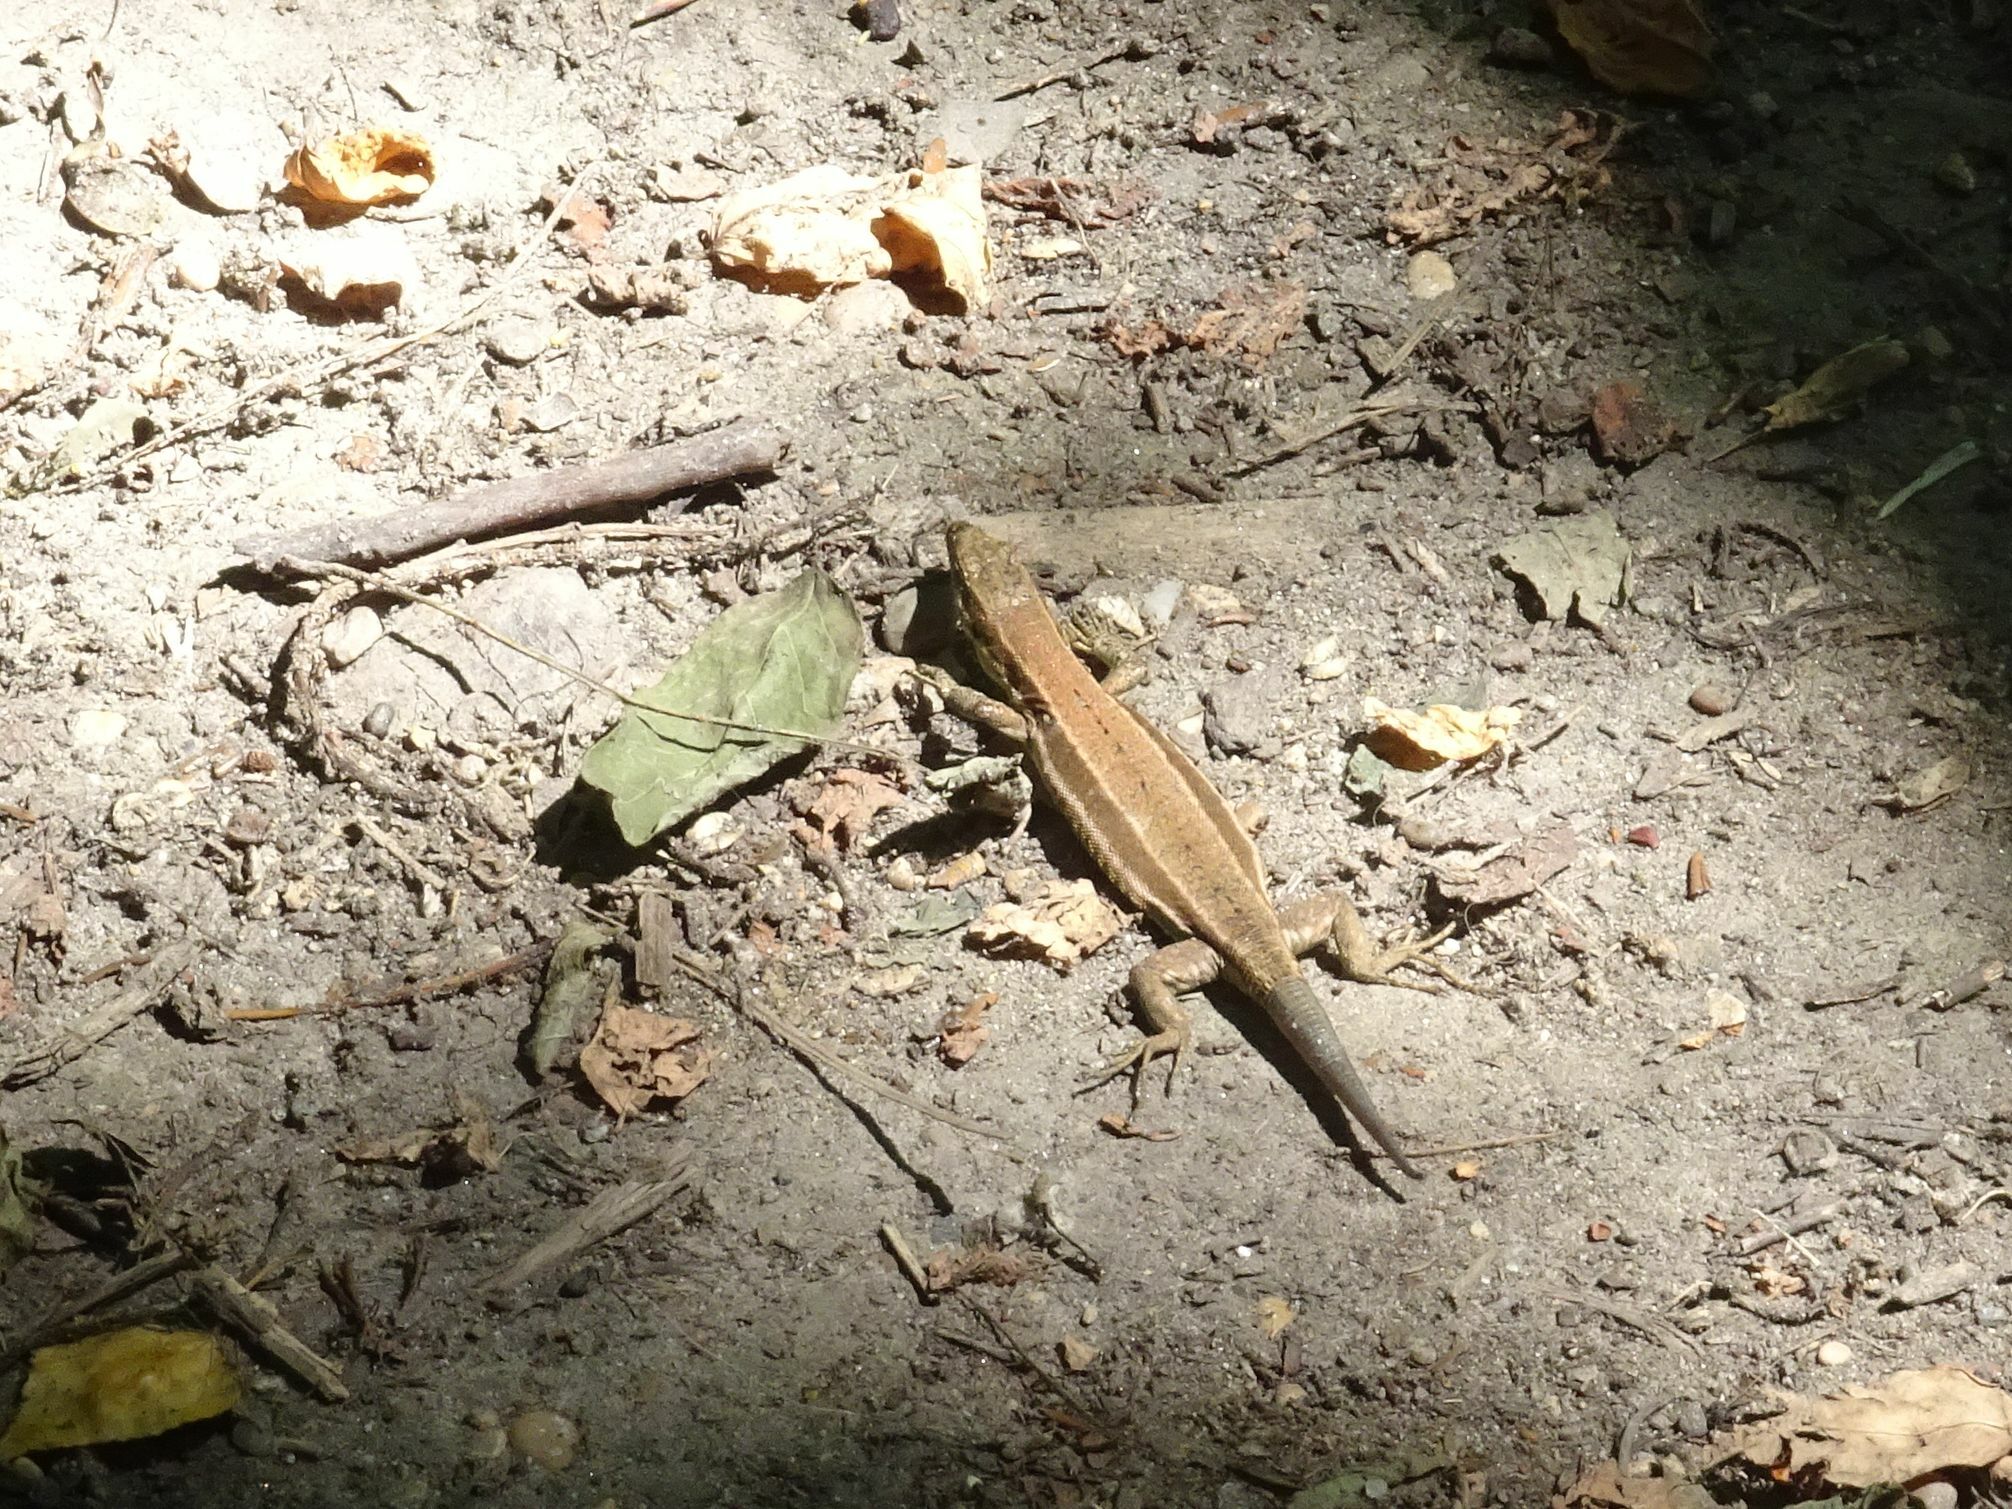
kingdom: Animalia
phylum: Chordata
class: Squamata
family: Lacertidae
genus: Podarcis
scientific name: Podarcis muralis
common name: Common wall lizard
